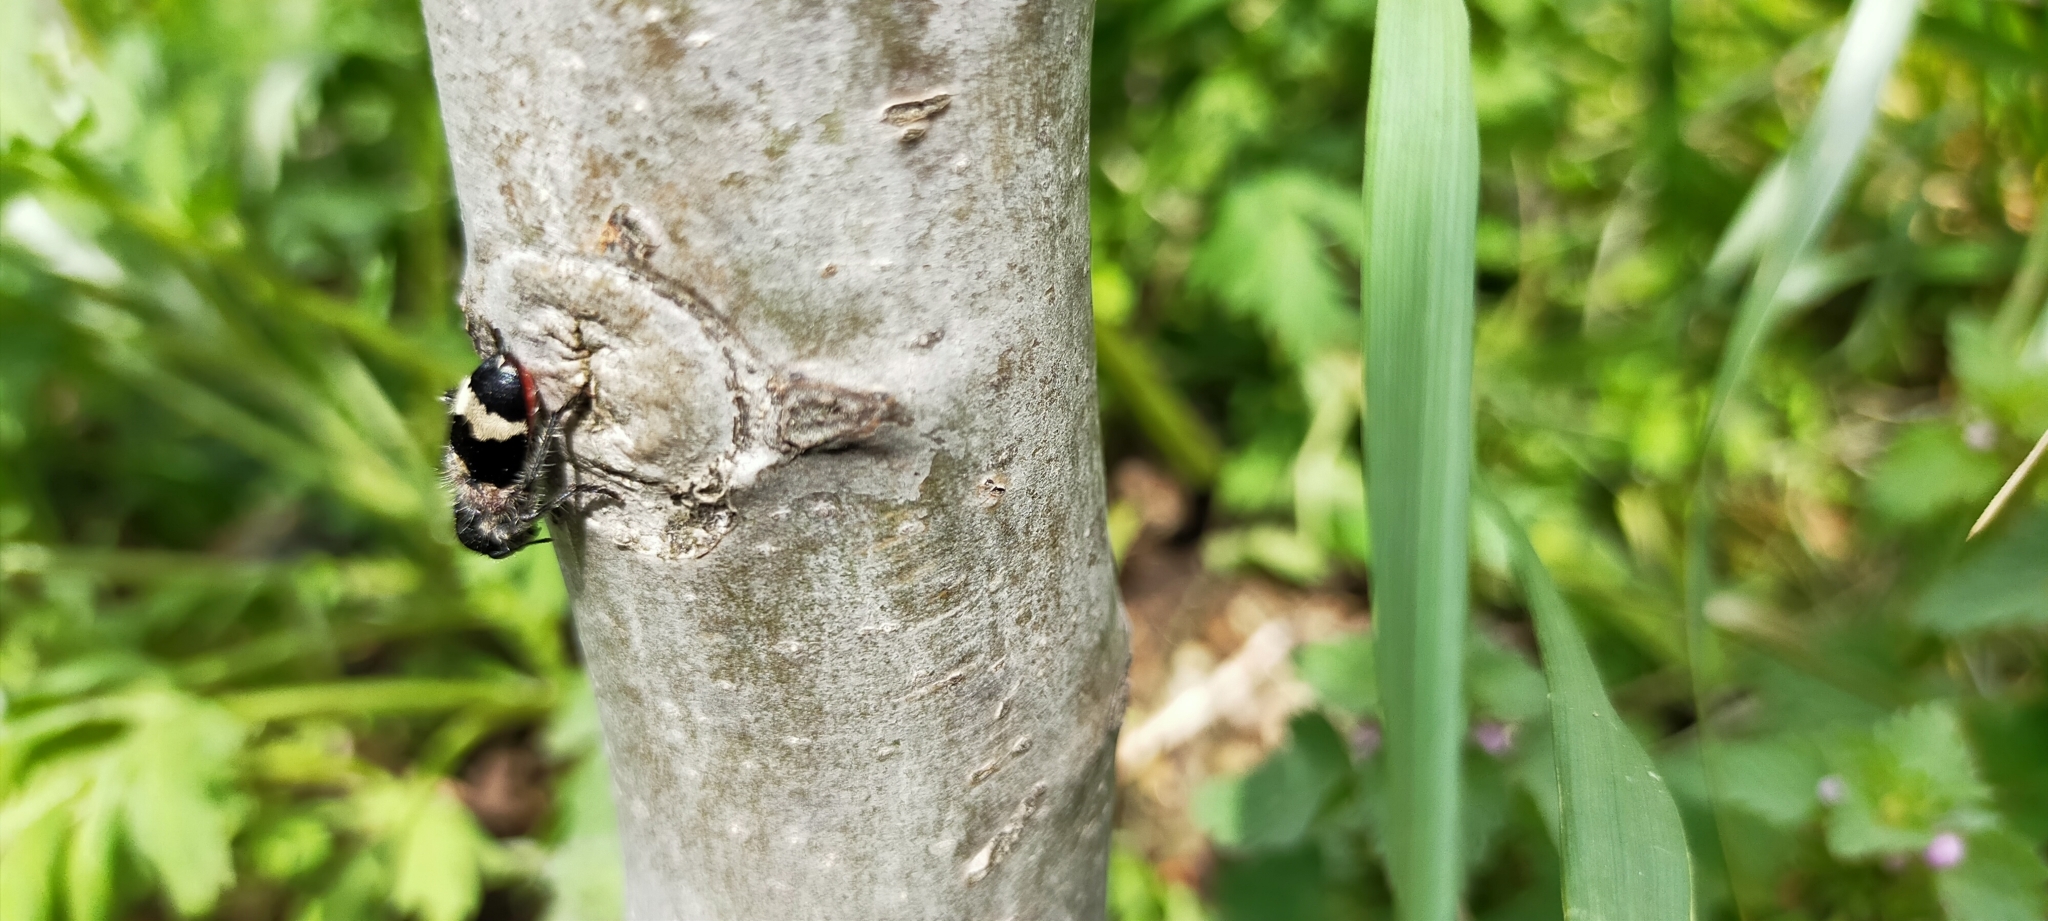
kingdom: Animalia
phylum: Arthropoda
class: Insecta
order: Coleoptera
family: Cleridae
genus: Clerus
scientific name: Clerus mutillarius
